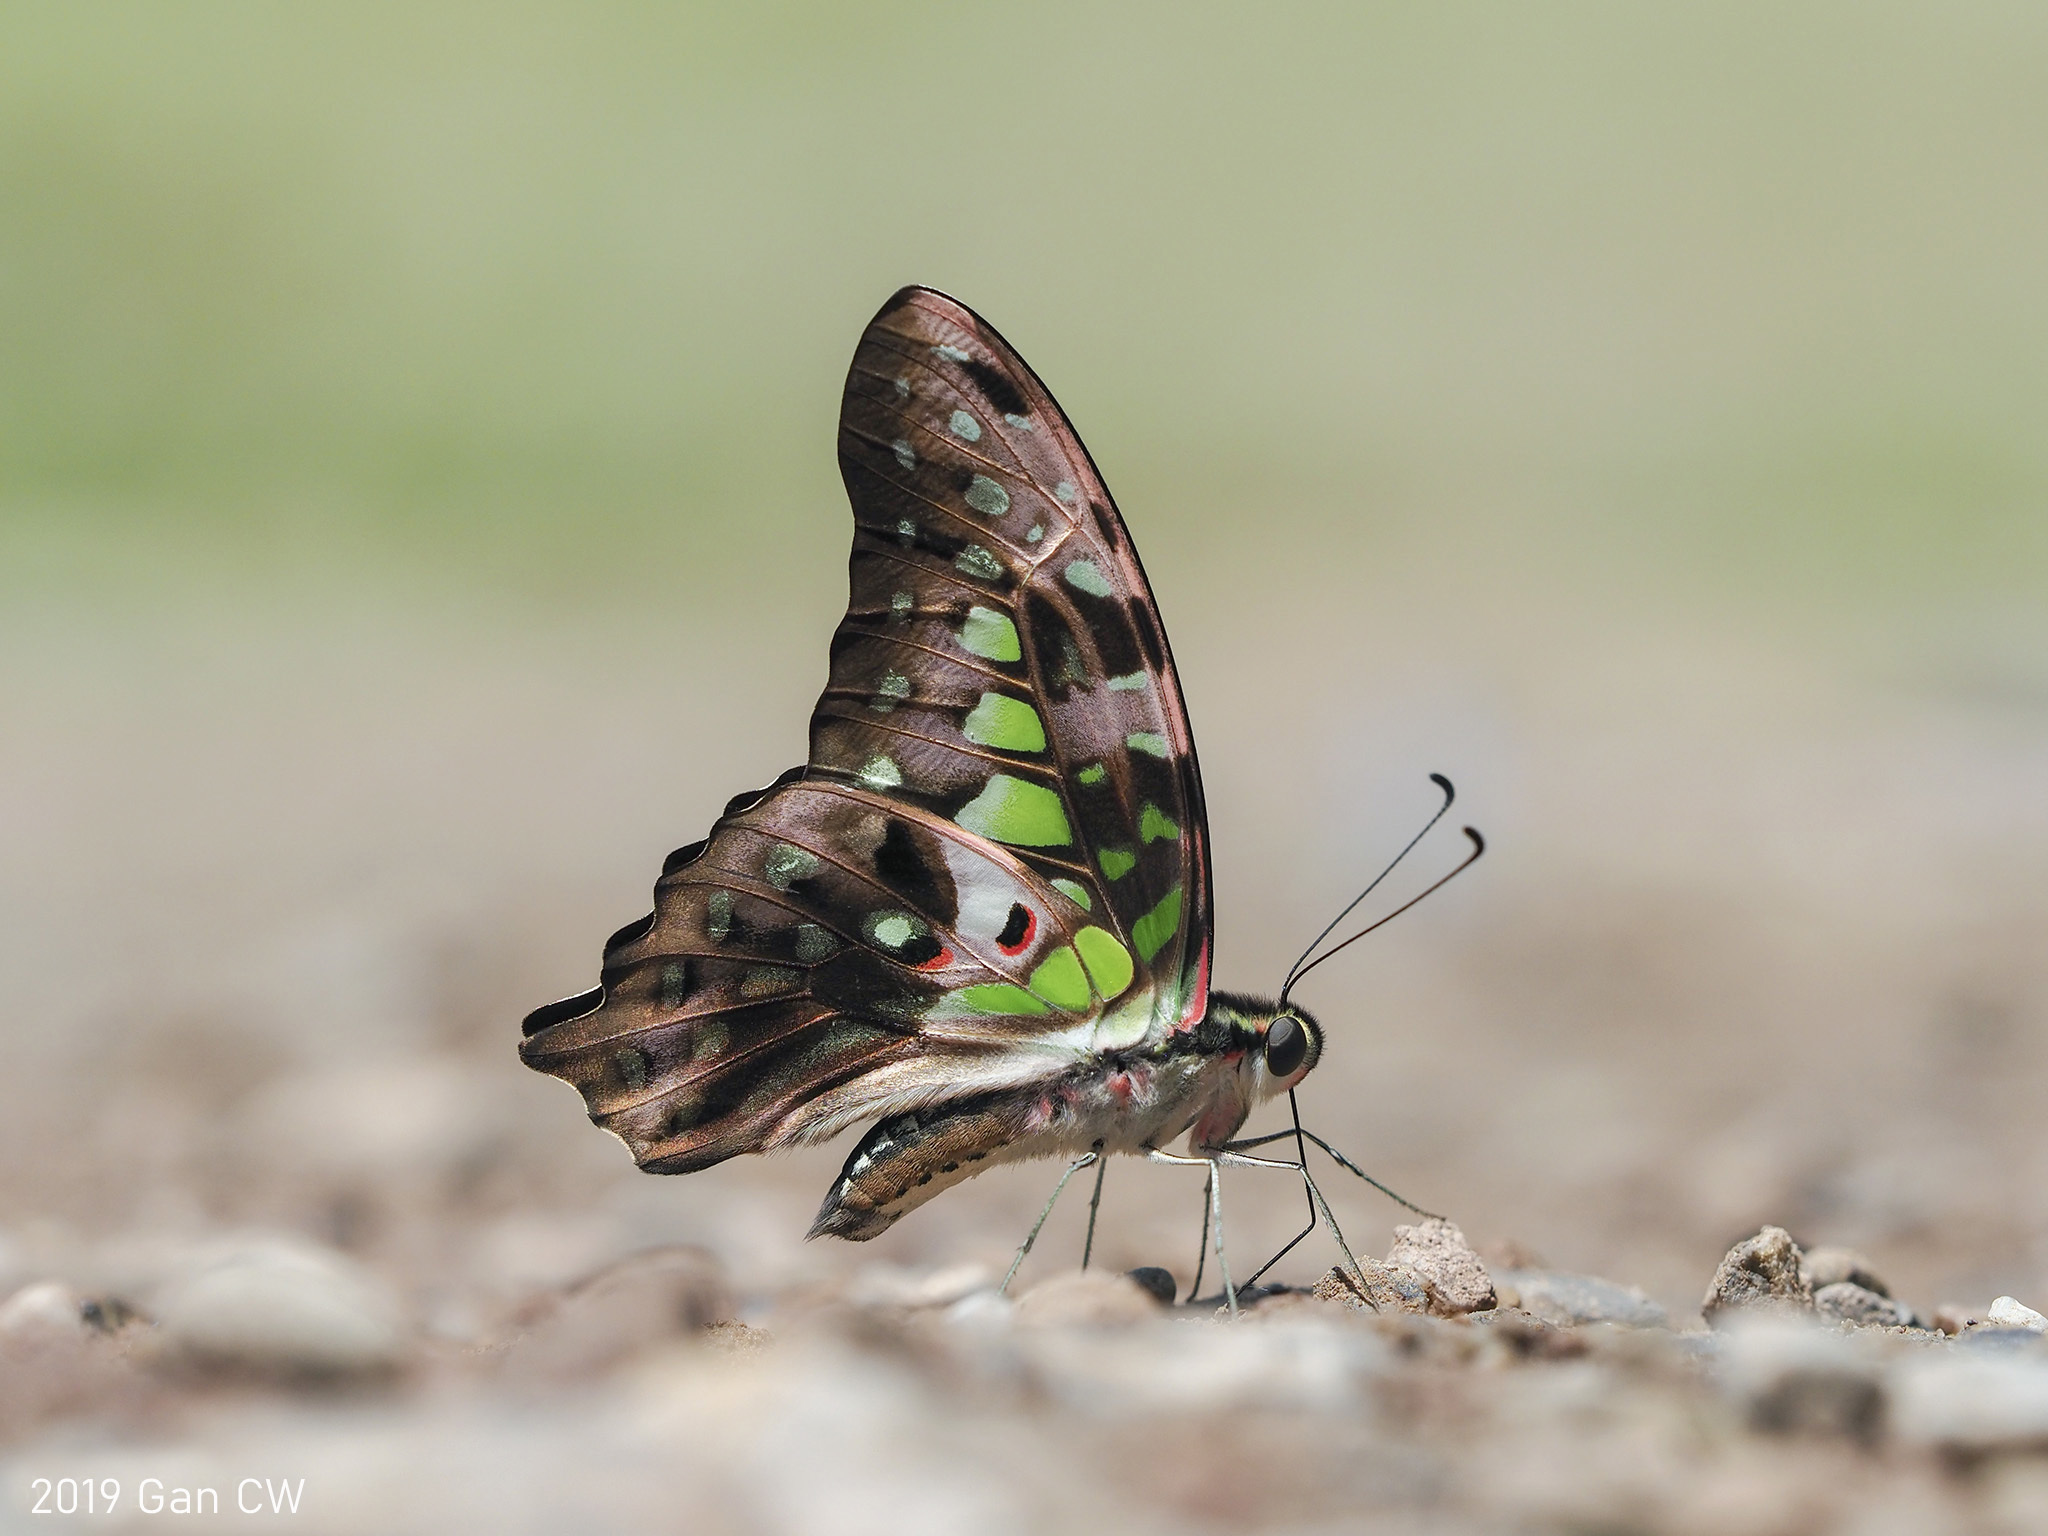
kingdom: Animalia
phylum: Arthropoda
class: Insecta
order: Lepidoptera
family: Papilionidae
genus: Graphium
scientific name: Graphium agamemnon
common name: Tailed jay
